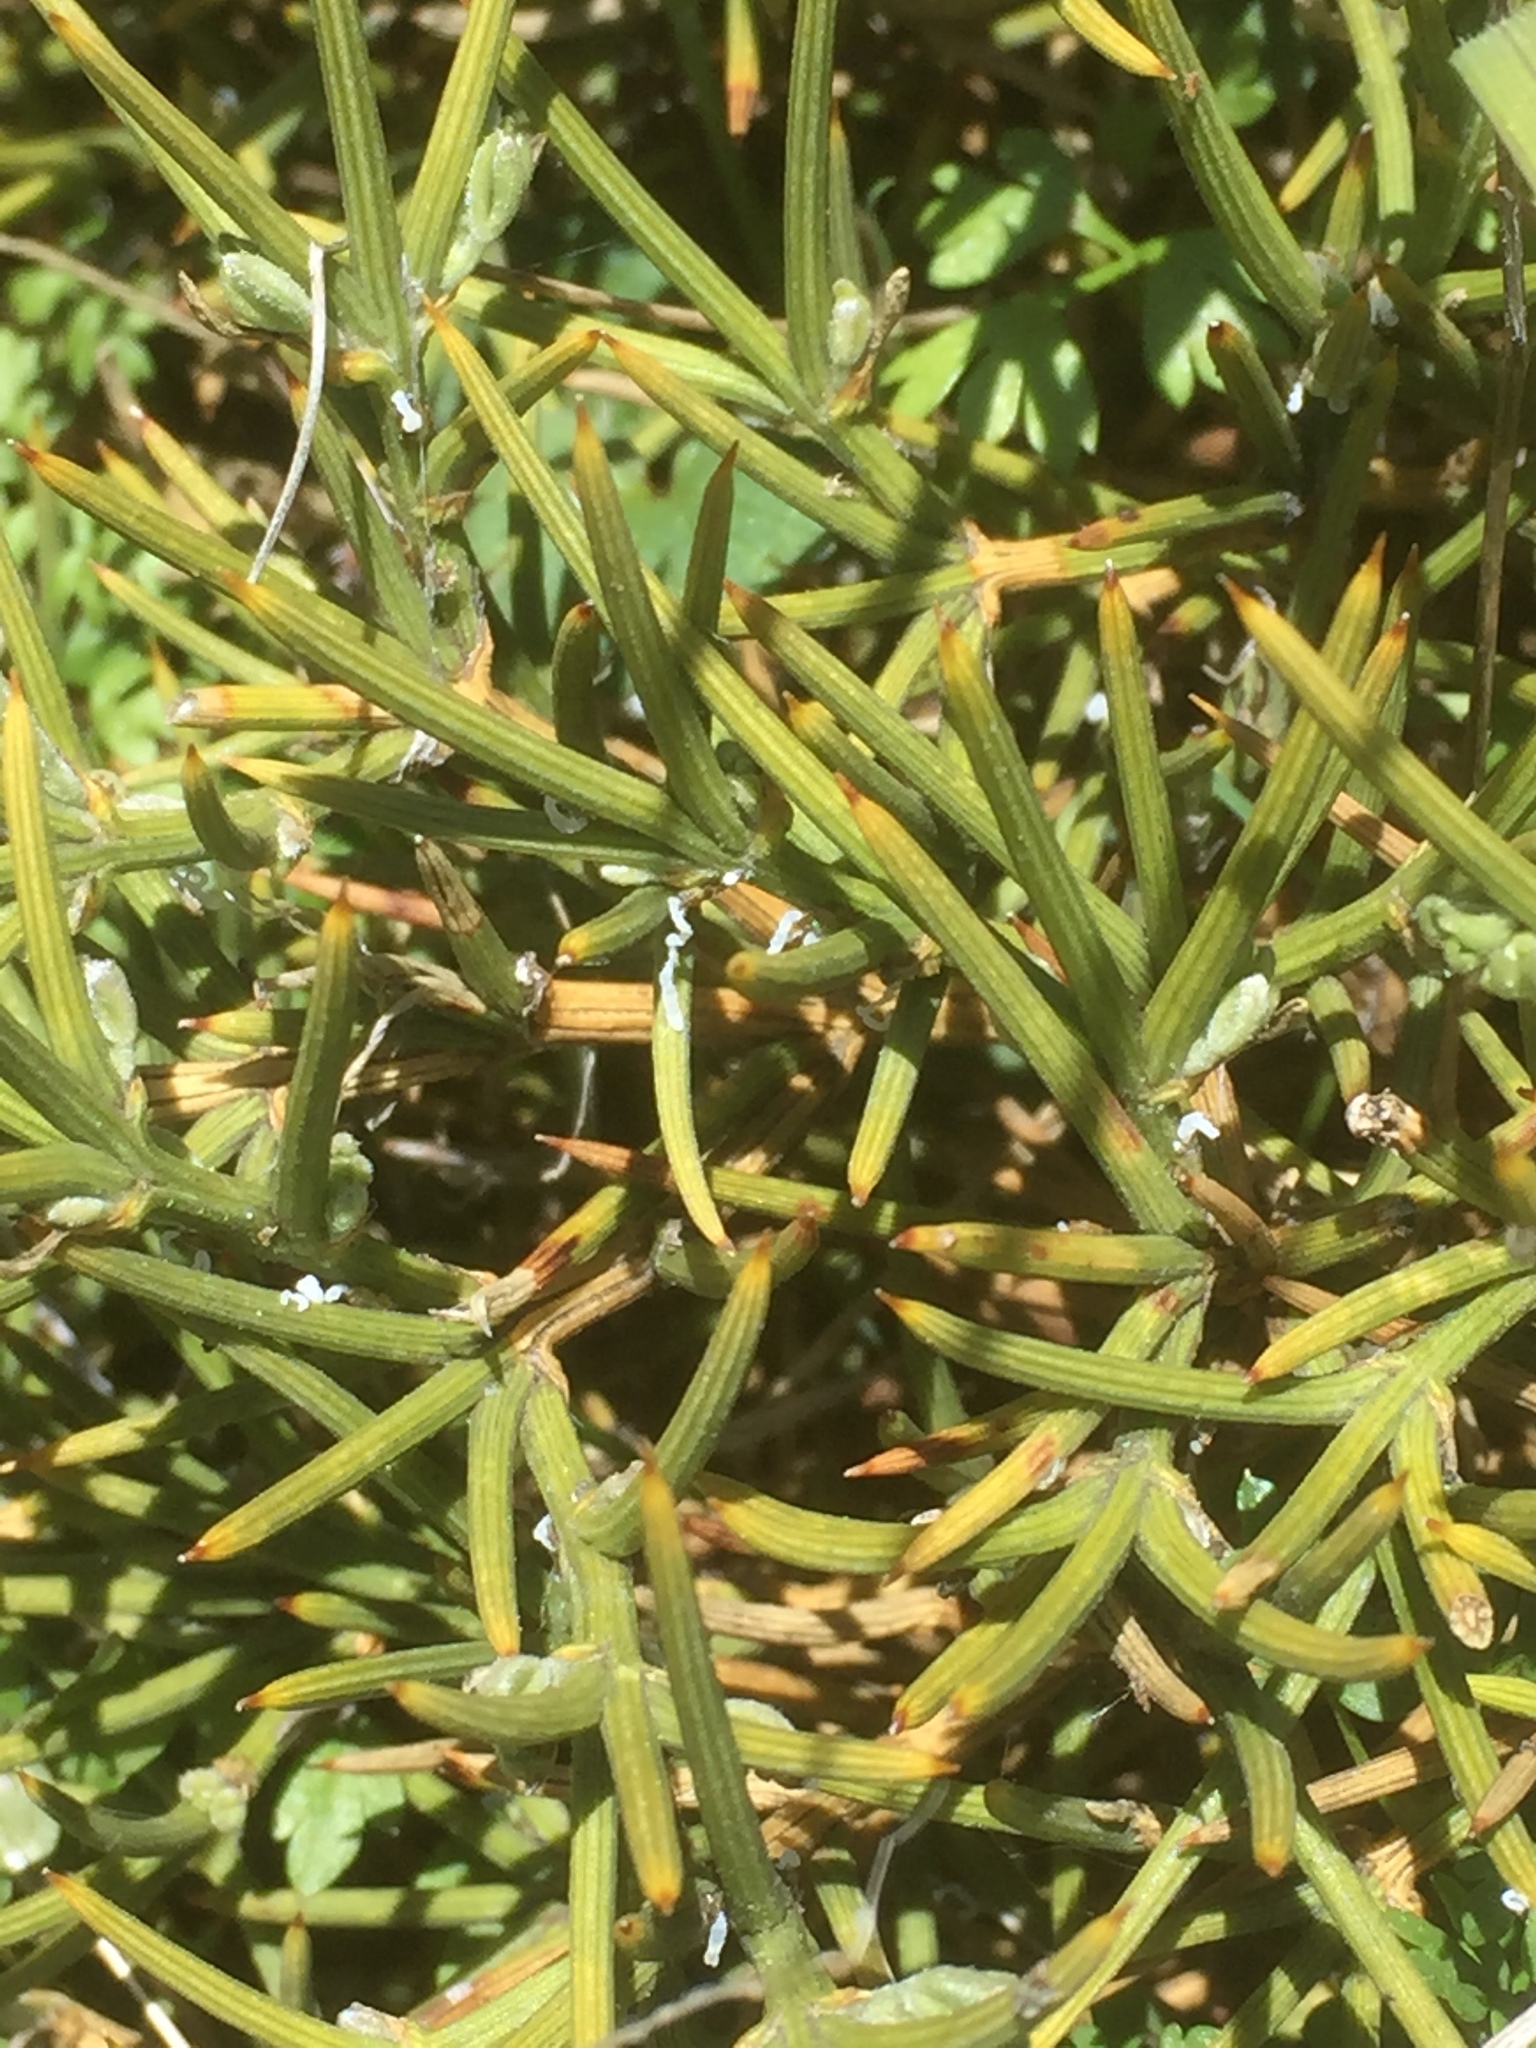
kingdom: Plantae
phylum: Tracheophyta
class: Magnoliopsida
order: Fabales
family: Fabaceae
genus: Echinospartum
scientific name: Echinospartum ibericum
